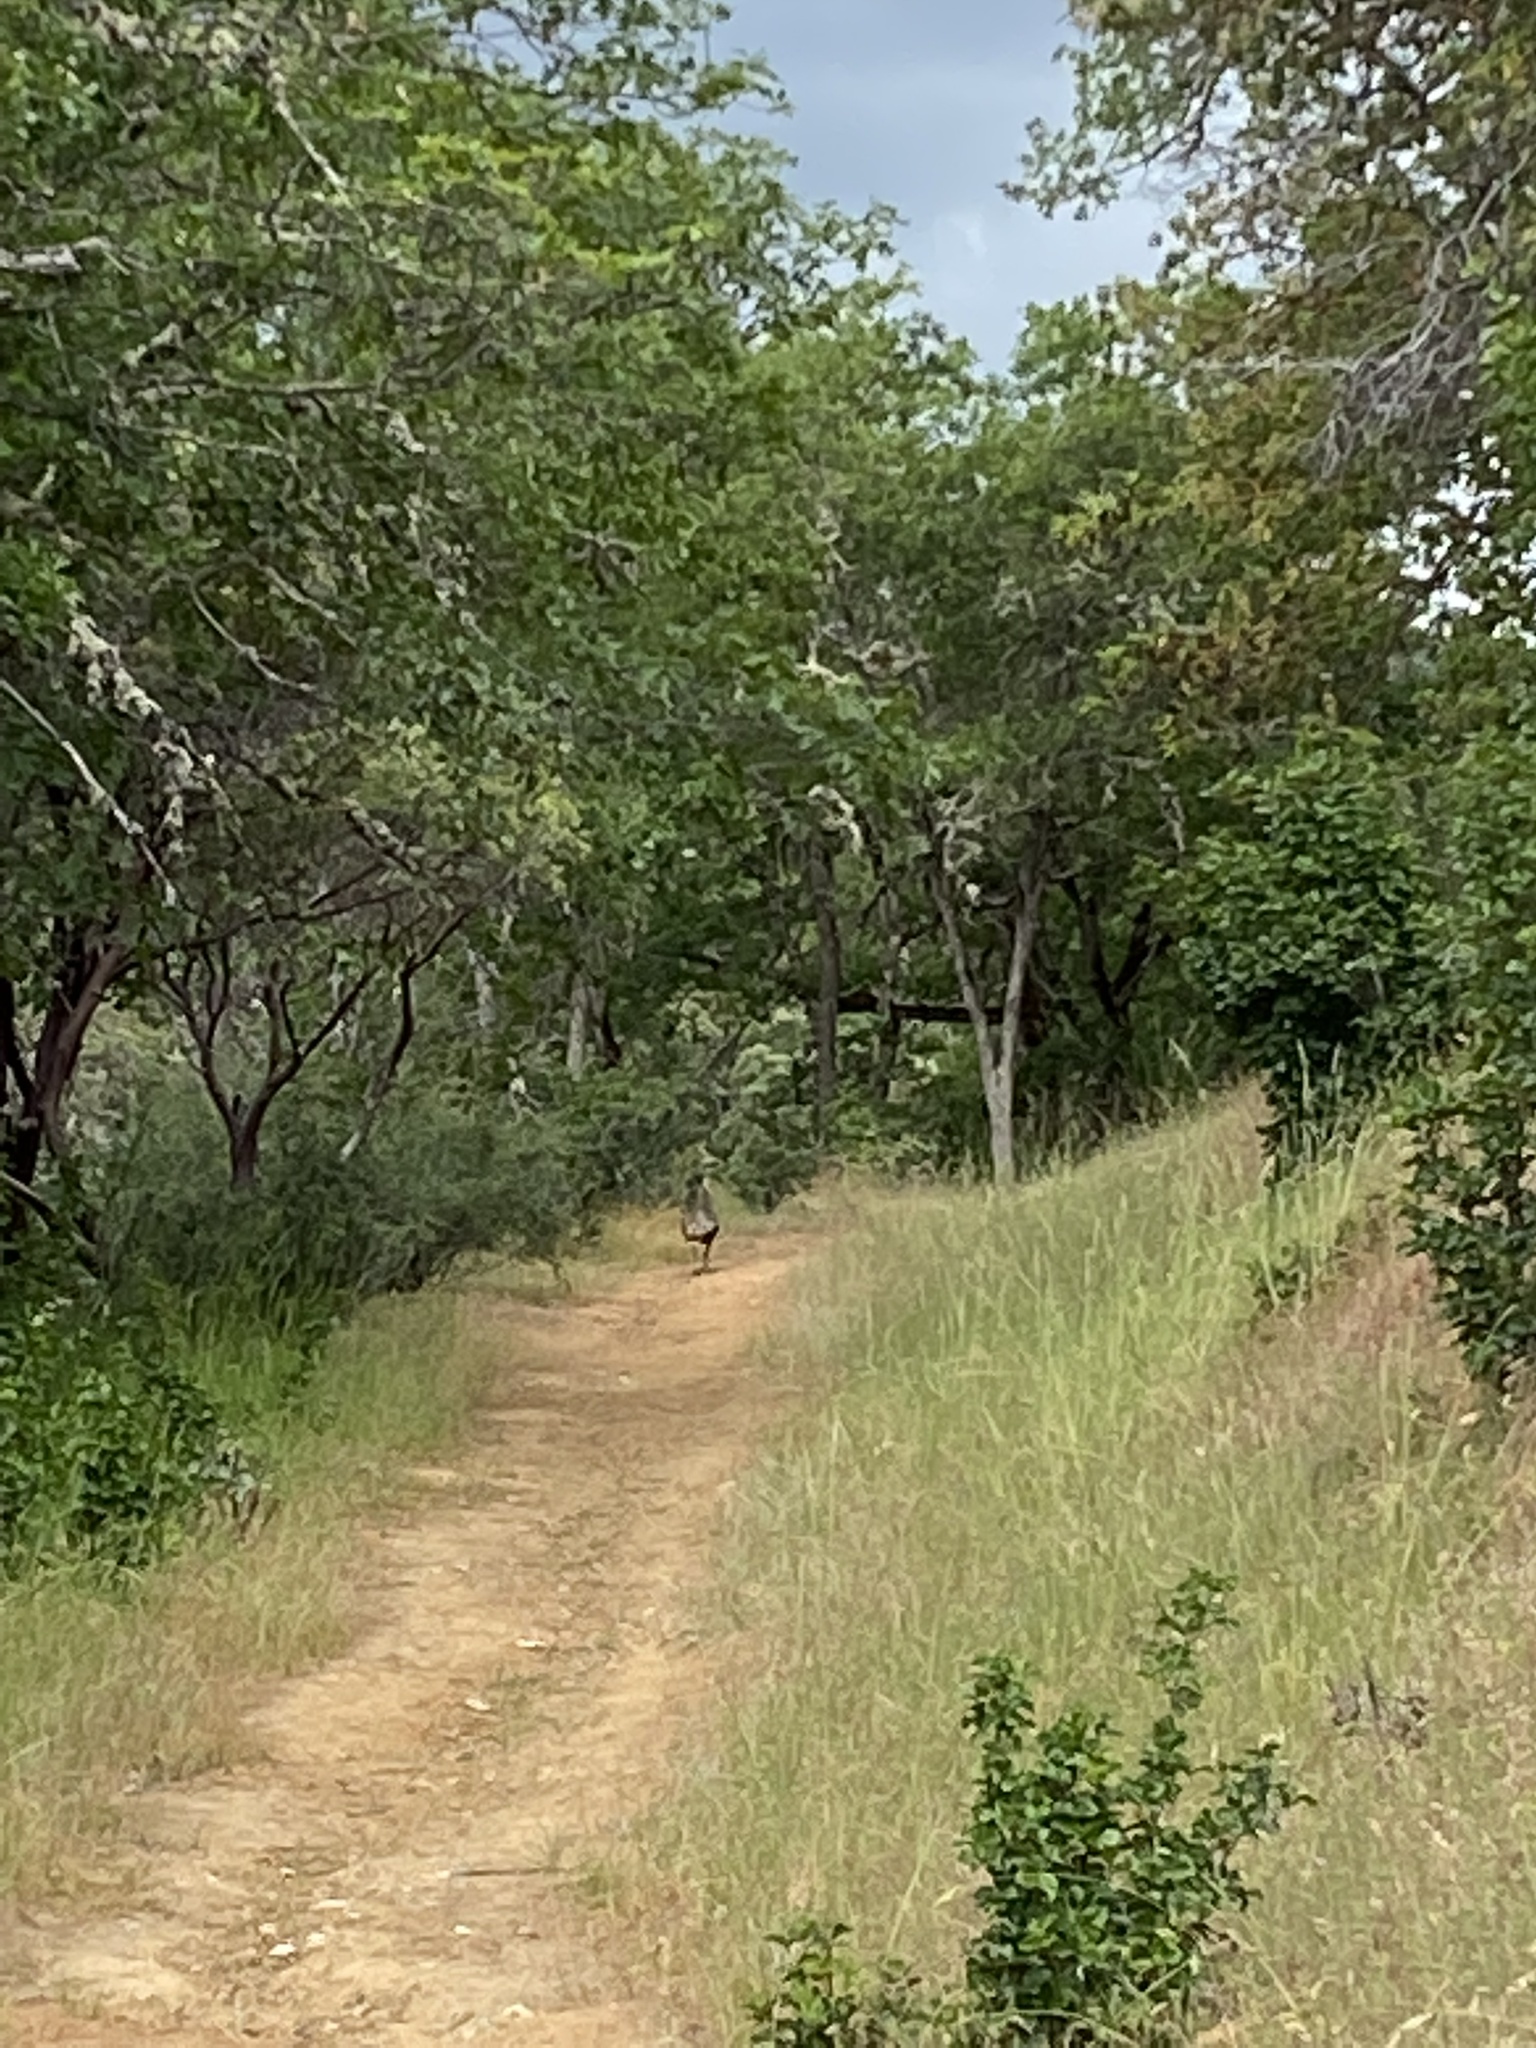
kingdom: Animalia
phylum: Chordata
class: Aves
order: Galliformes
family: Phasianidae
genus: Meleagris
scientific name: Meleagris gallopavo
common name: Wild turkey
